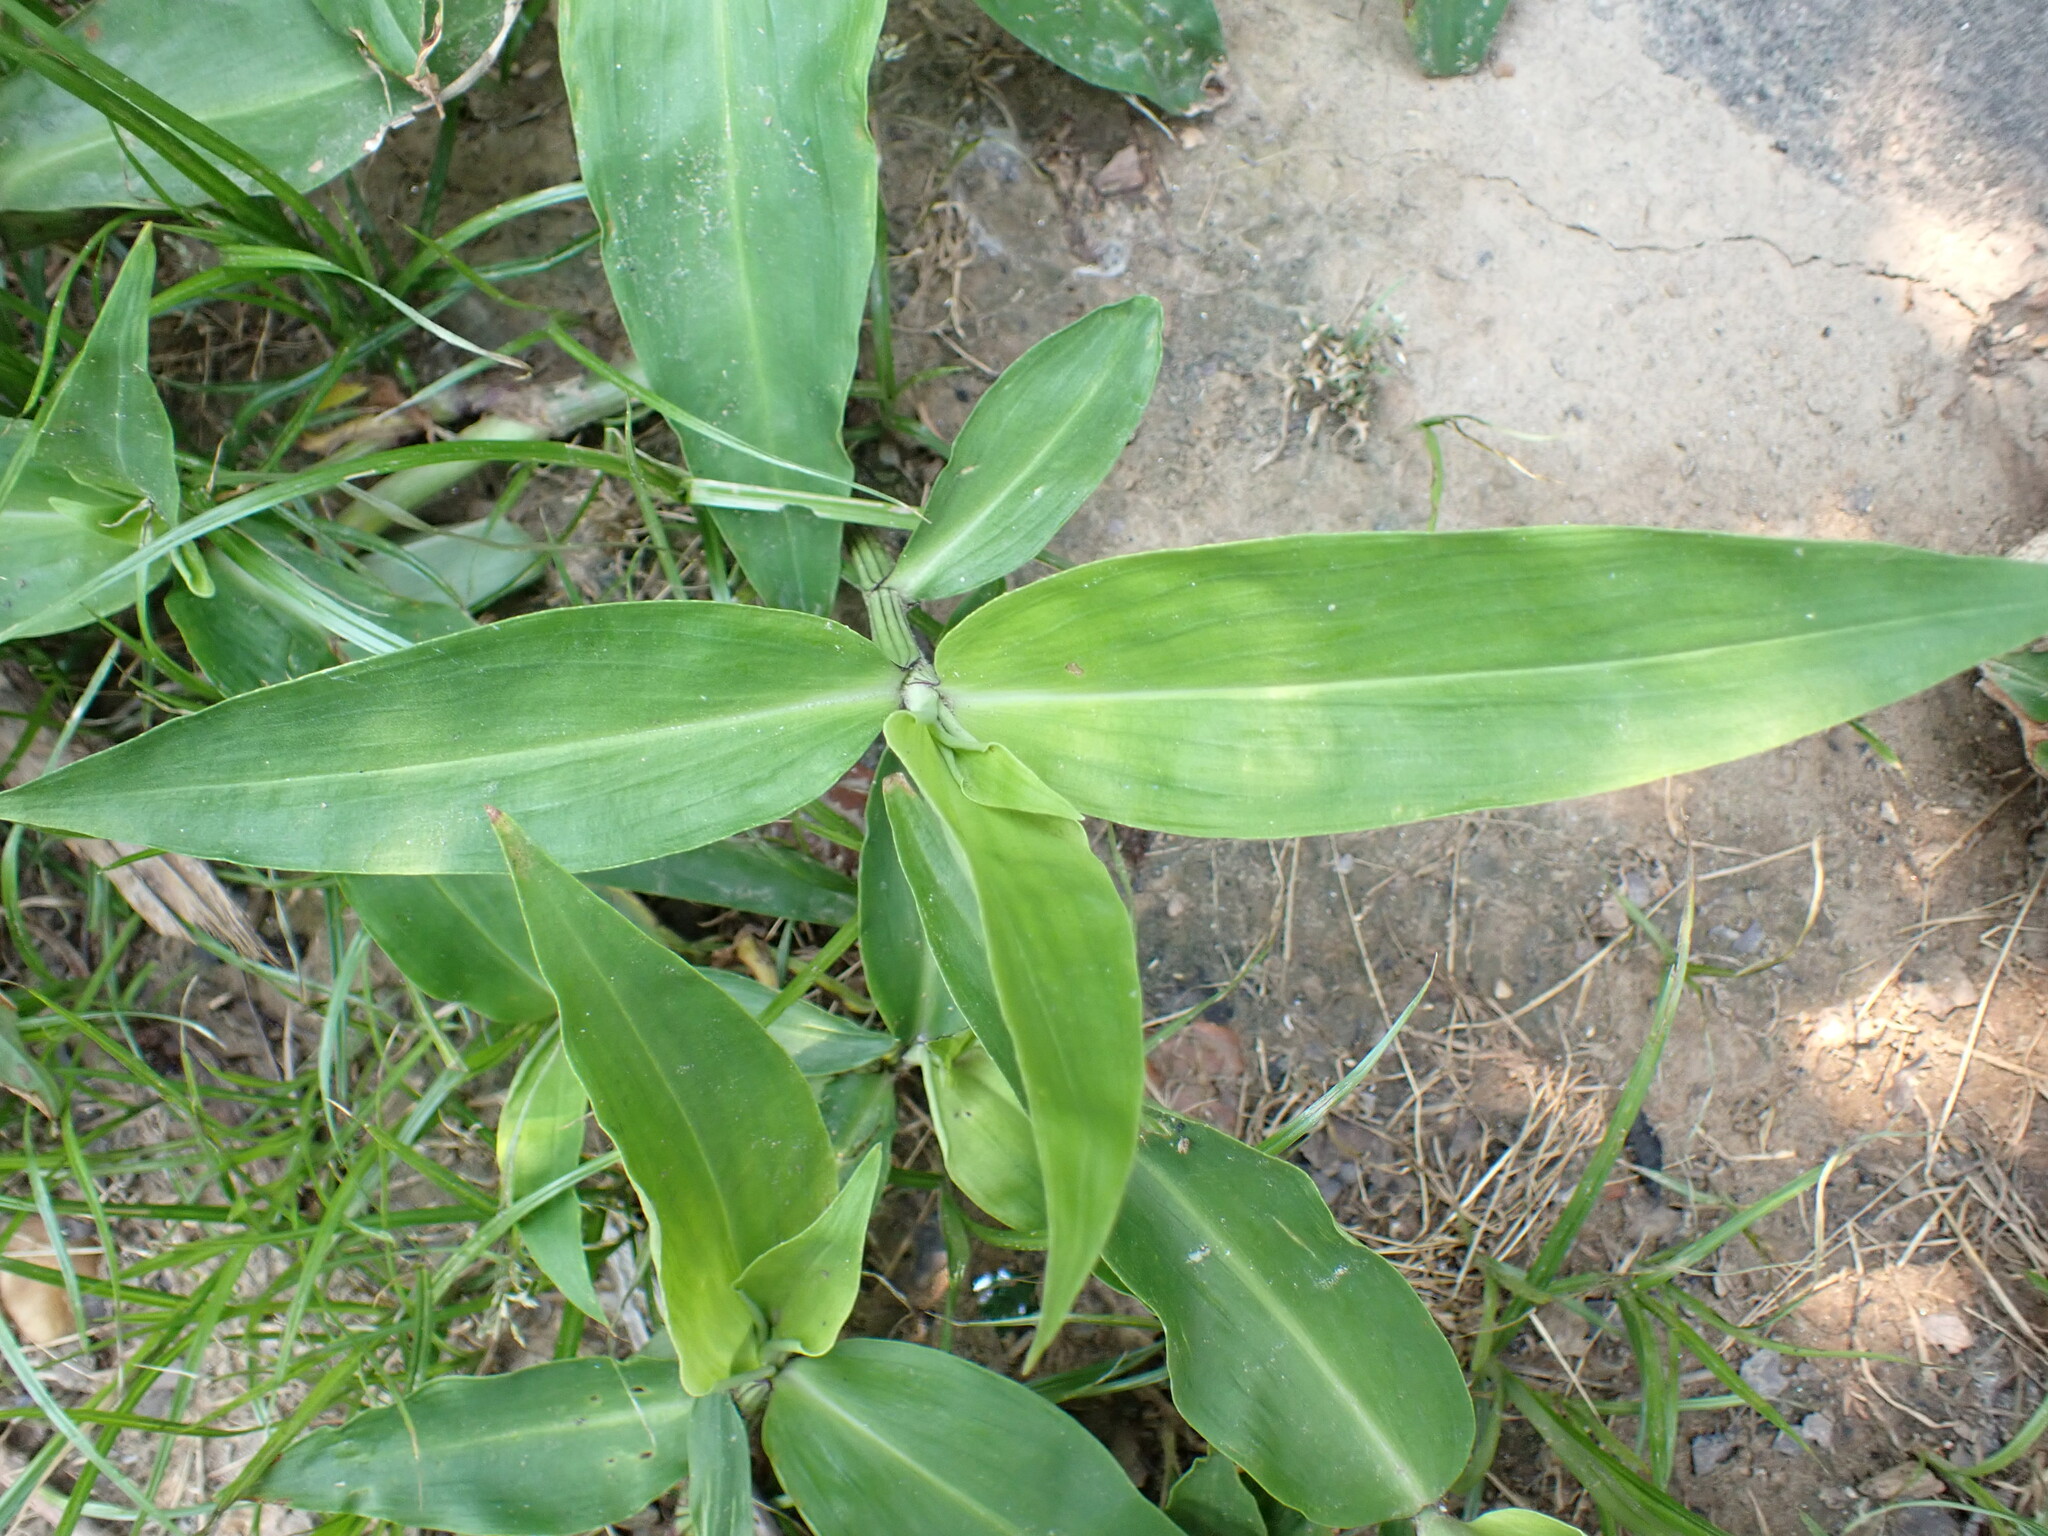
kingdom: Plantae
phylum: Tracheophyta
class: Liliopsida
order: Commelinales
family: Commelinaceae
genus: Commelina
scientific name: Commelina virginica
